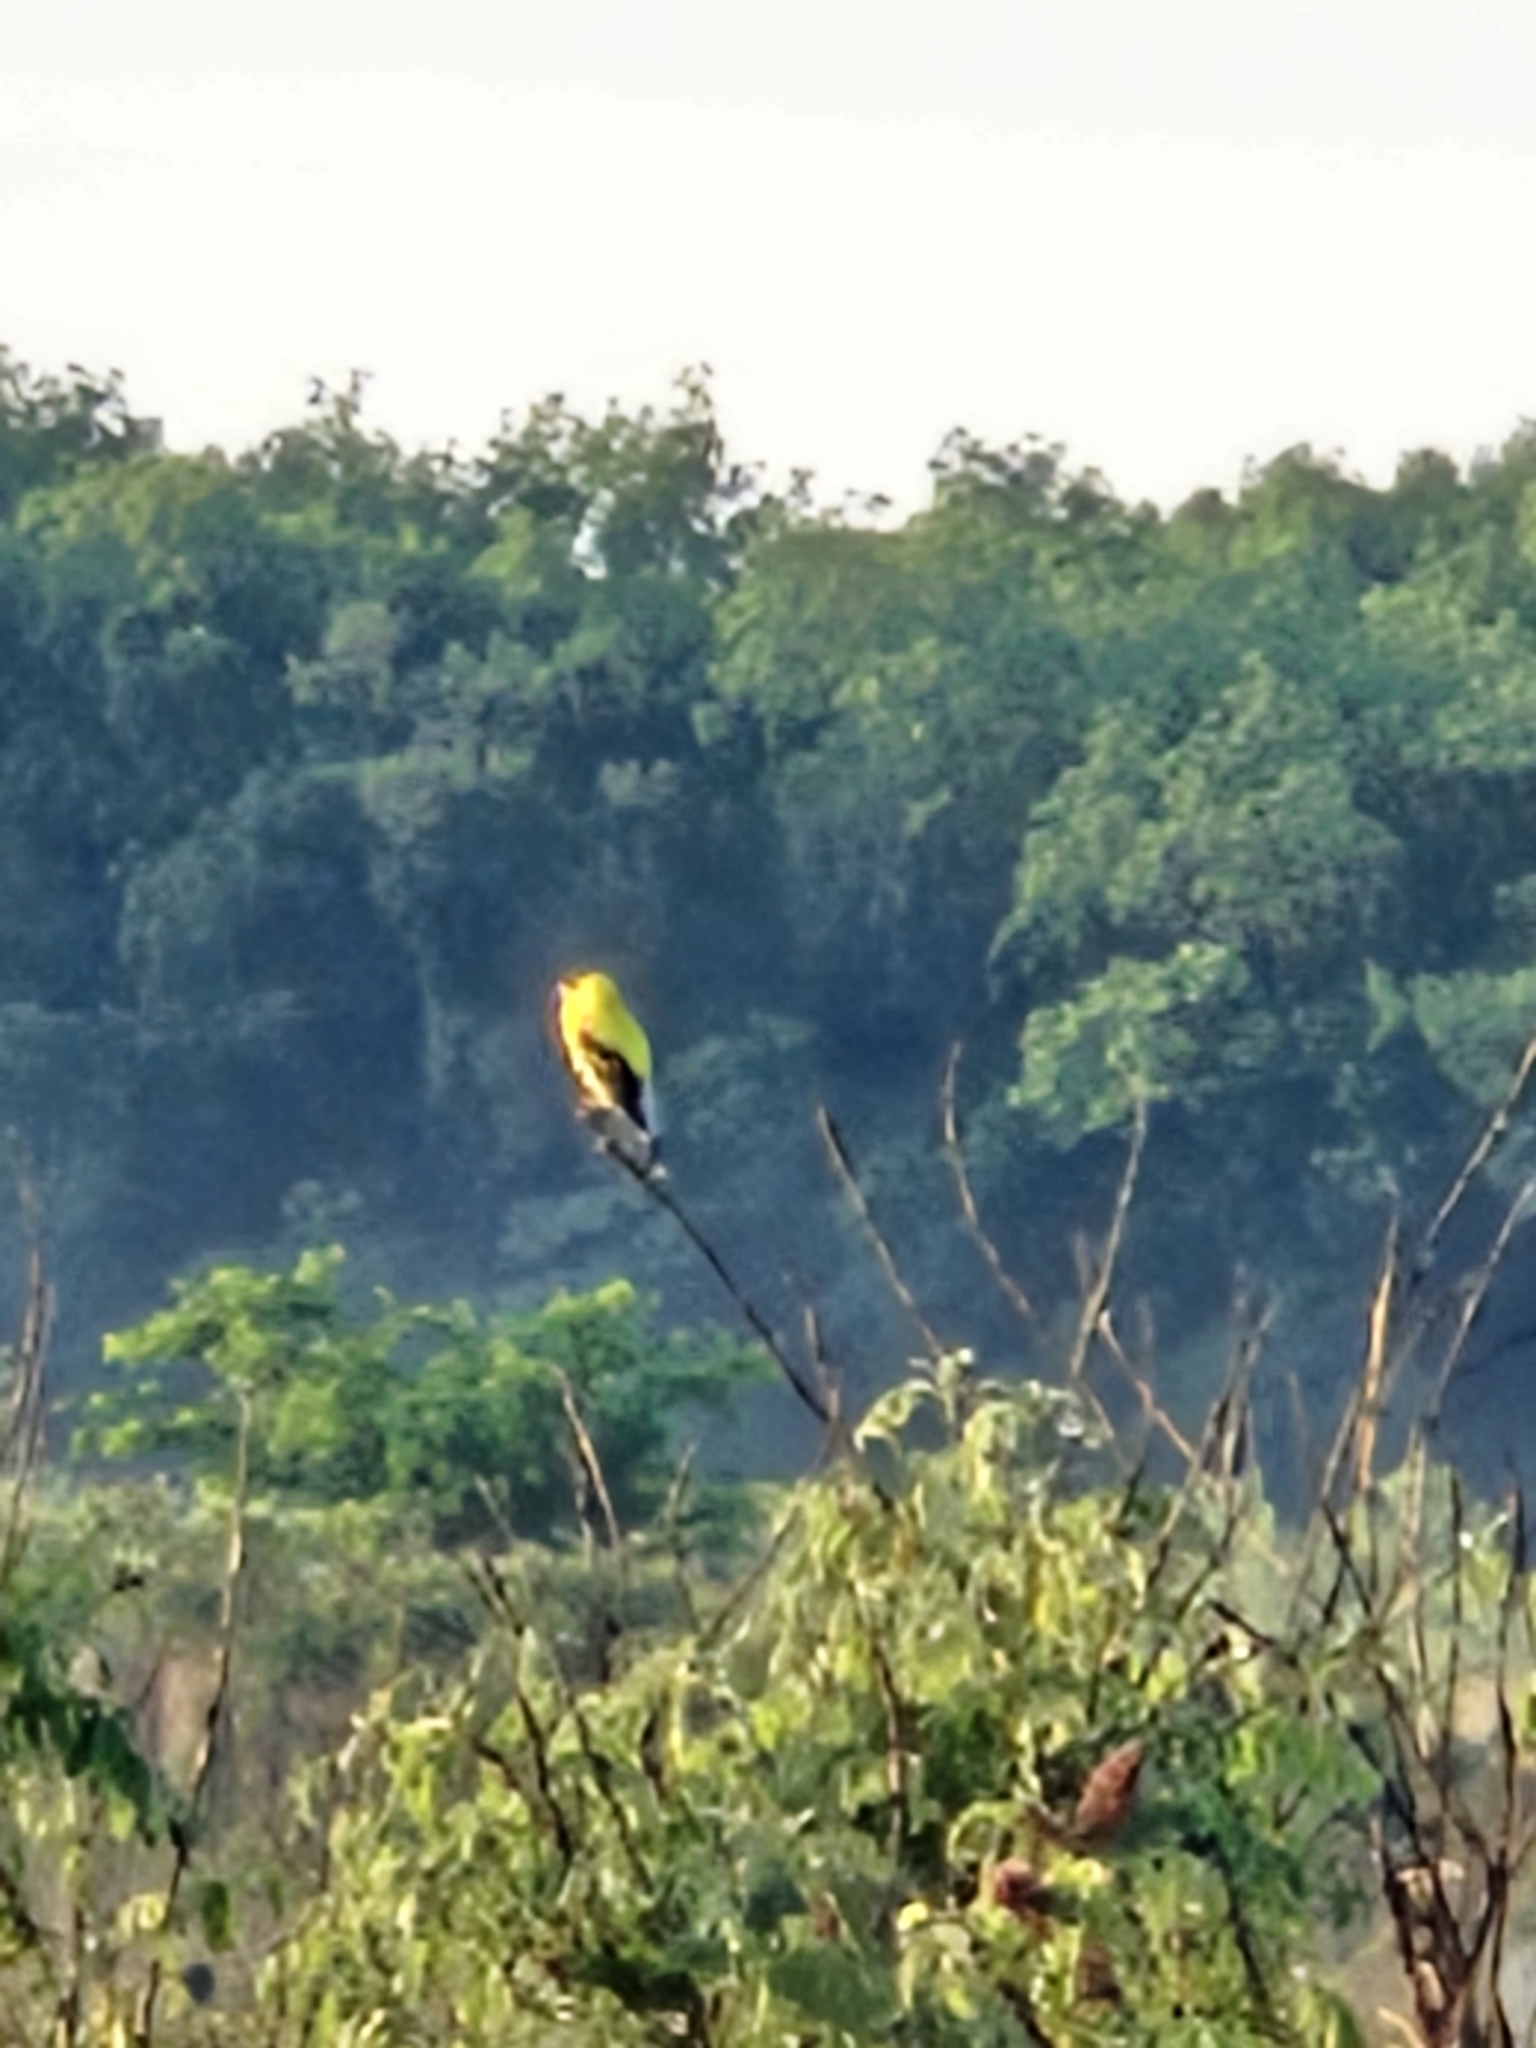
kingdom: Animalia
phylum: Chordata
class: Aves
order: Passeriformes
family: Fringillidae
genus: Spinus
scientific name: Spinus tristis
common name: American goldfinch
